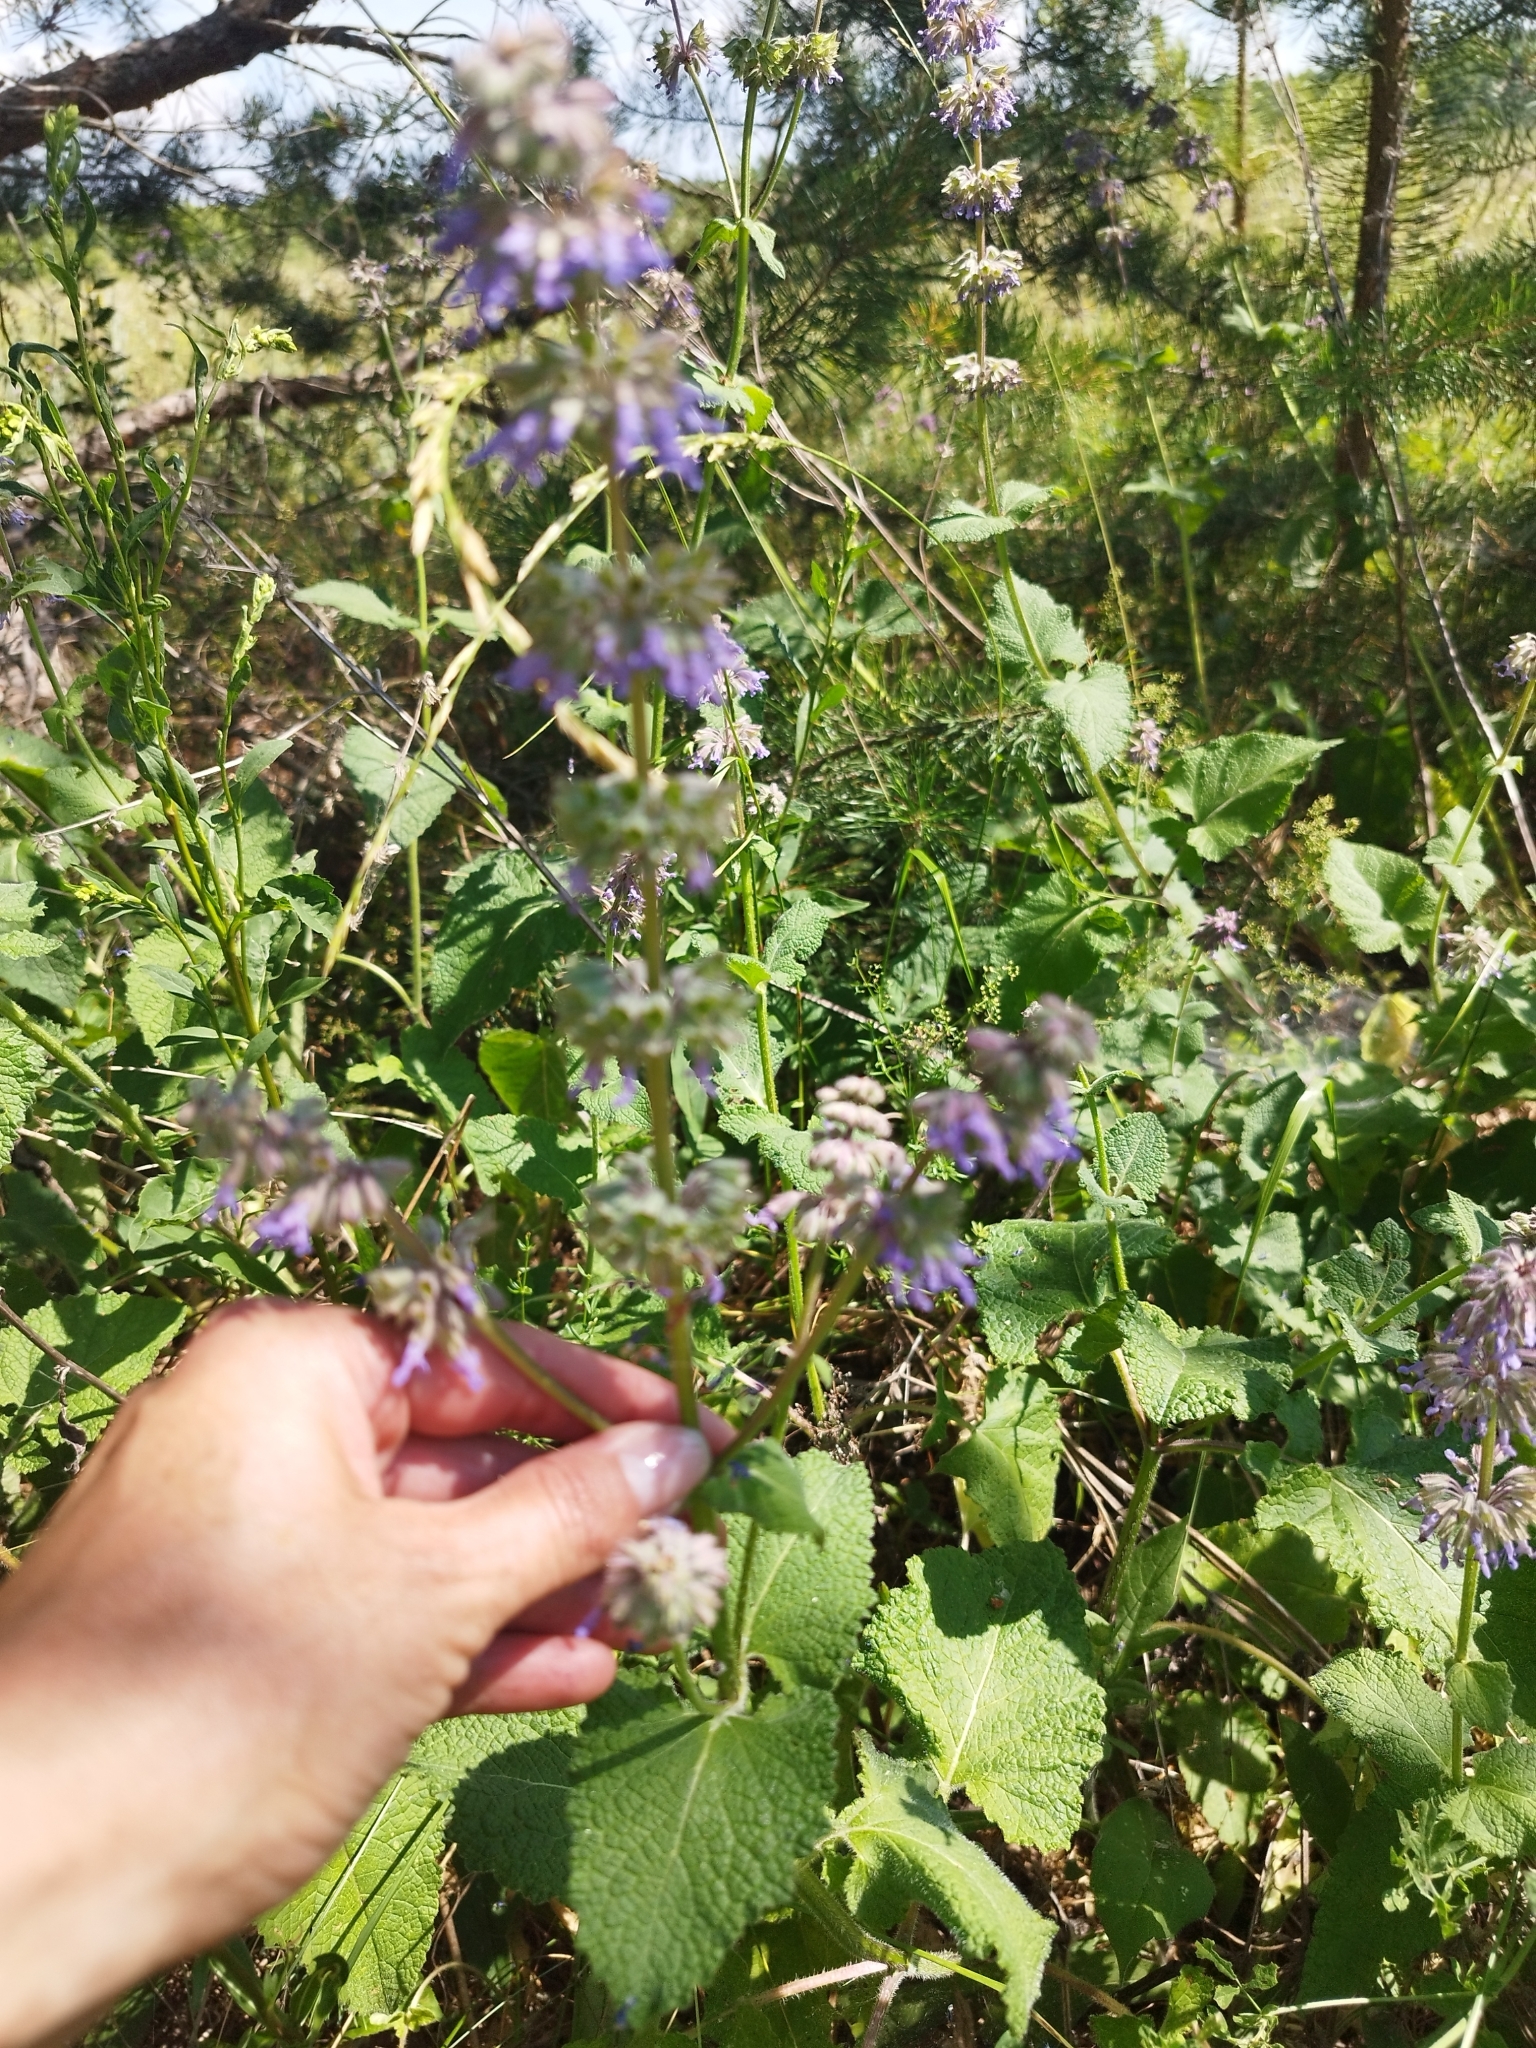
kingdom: Plantae
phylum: Tracheophyta
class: Magnoliopsida
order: Lamiales
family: Lamiaceae
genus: Salvia
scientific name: Salvia verticillata
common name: Whorled clary
